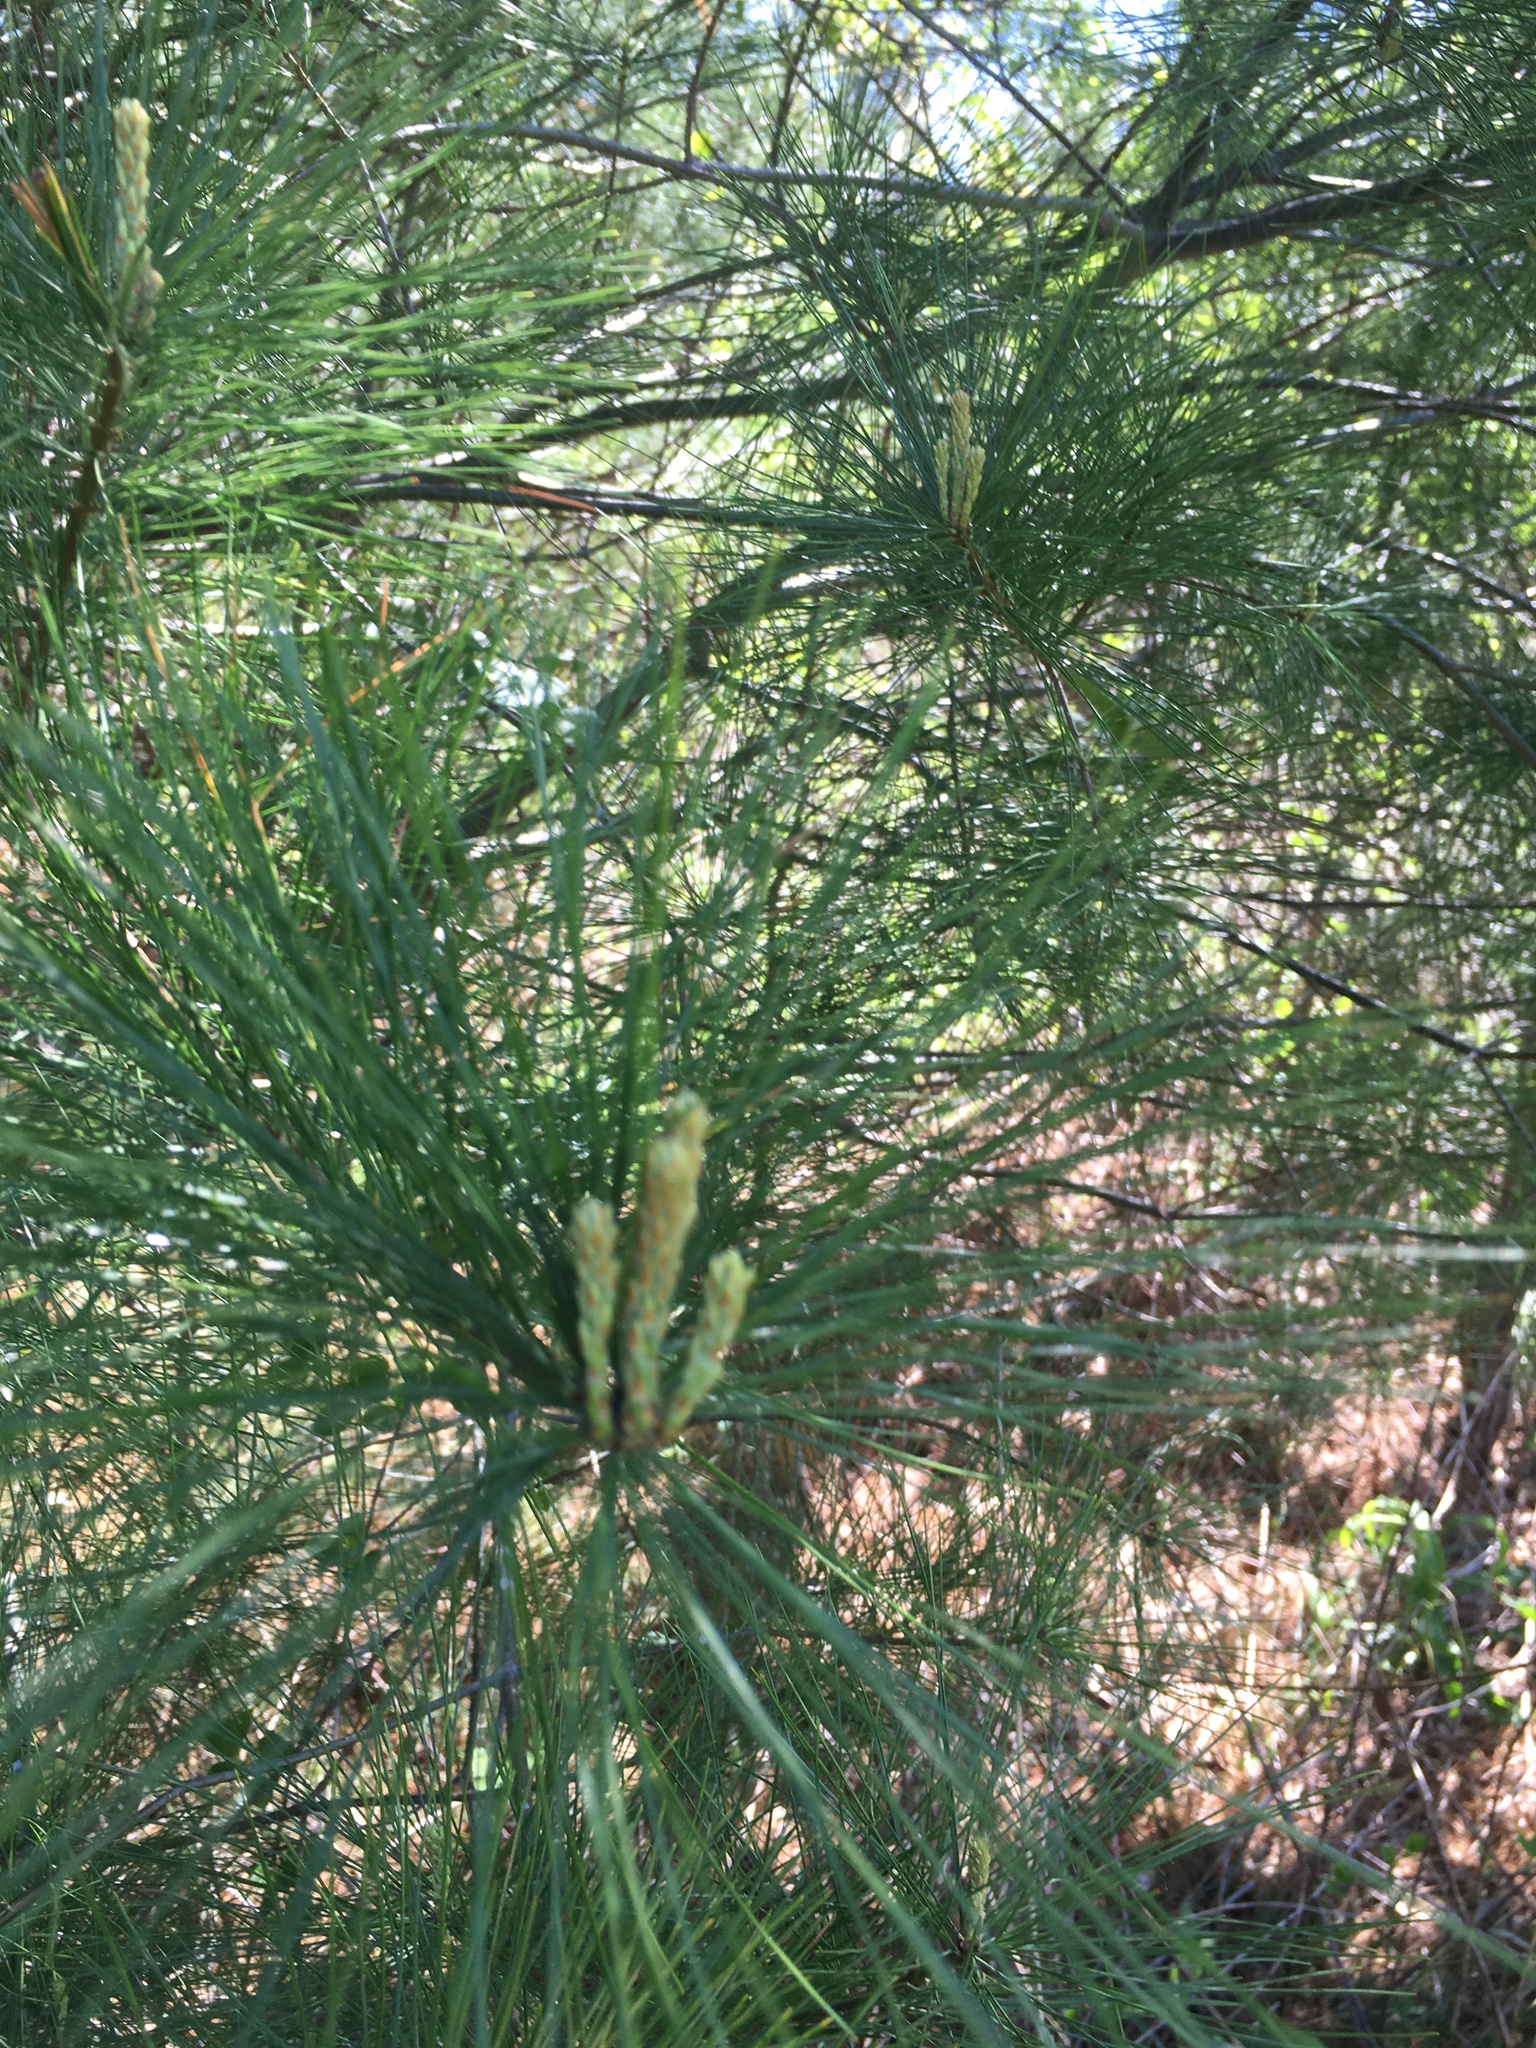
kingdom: Plantae
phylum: Tracheophyta
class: Pinopsida
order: Pinales
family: Pinaceae
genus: Pinus
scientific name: Pinus strobus
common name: Weymouth pine
